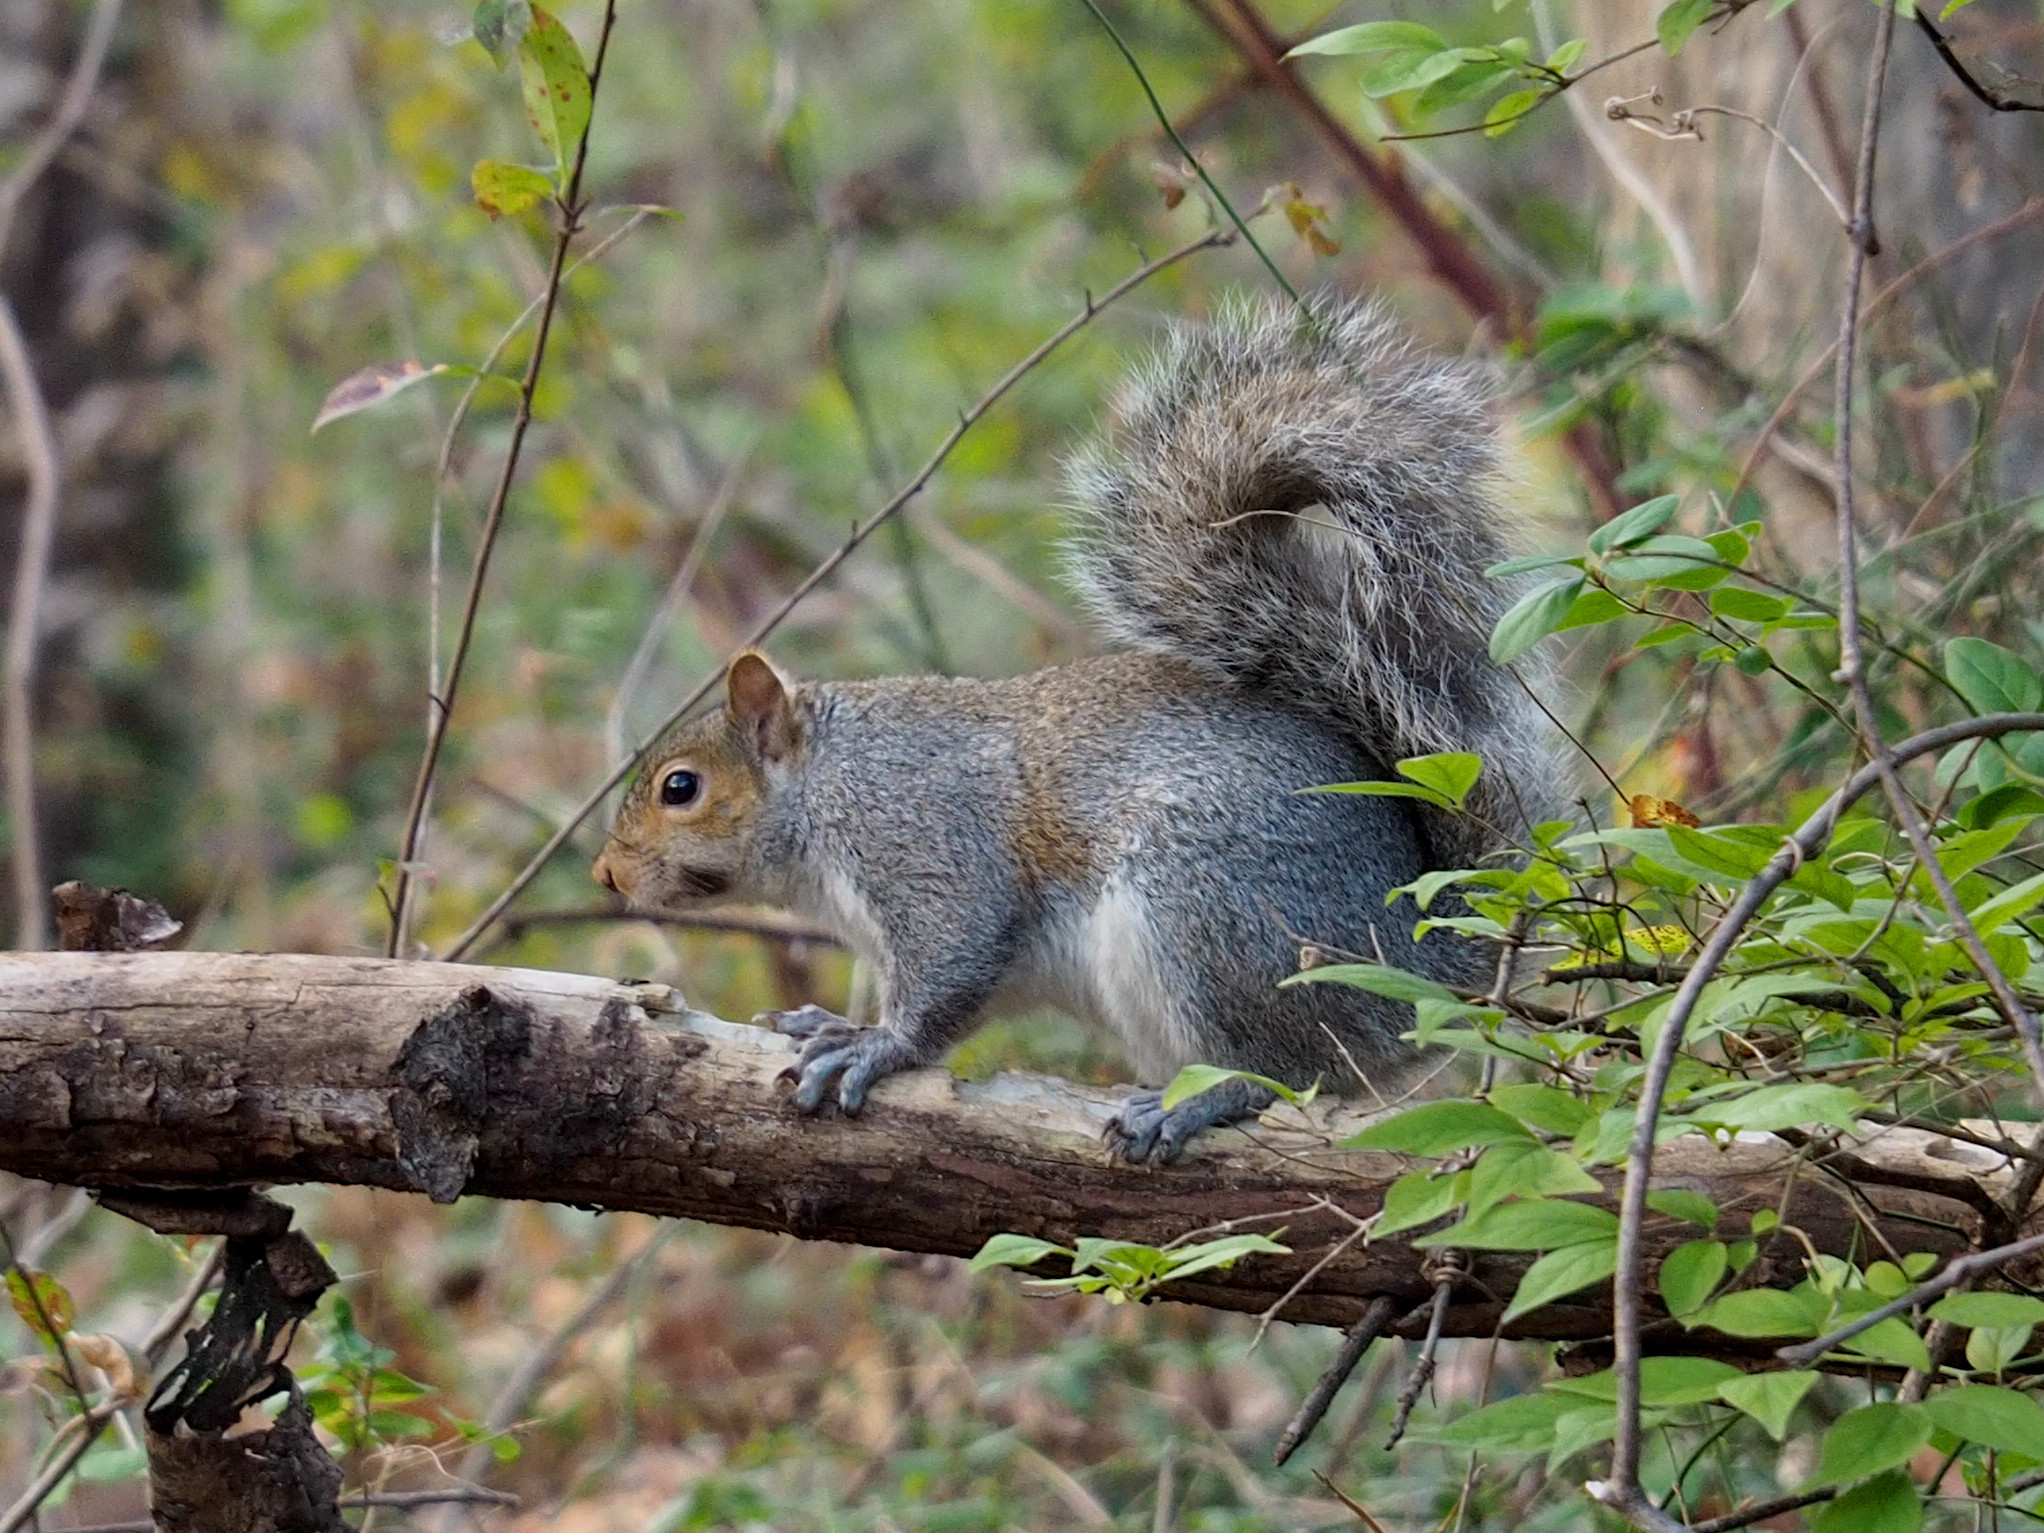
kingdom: Animalia
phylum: Chordata
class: Mammalia
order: Rodentia
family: Sciuridae
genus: Sciurus
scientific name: Sciurus carolinensis
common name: Eastern gray squirrel
